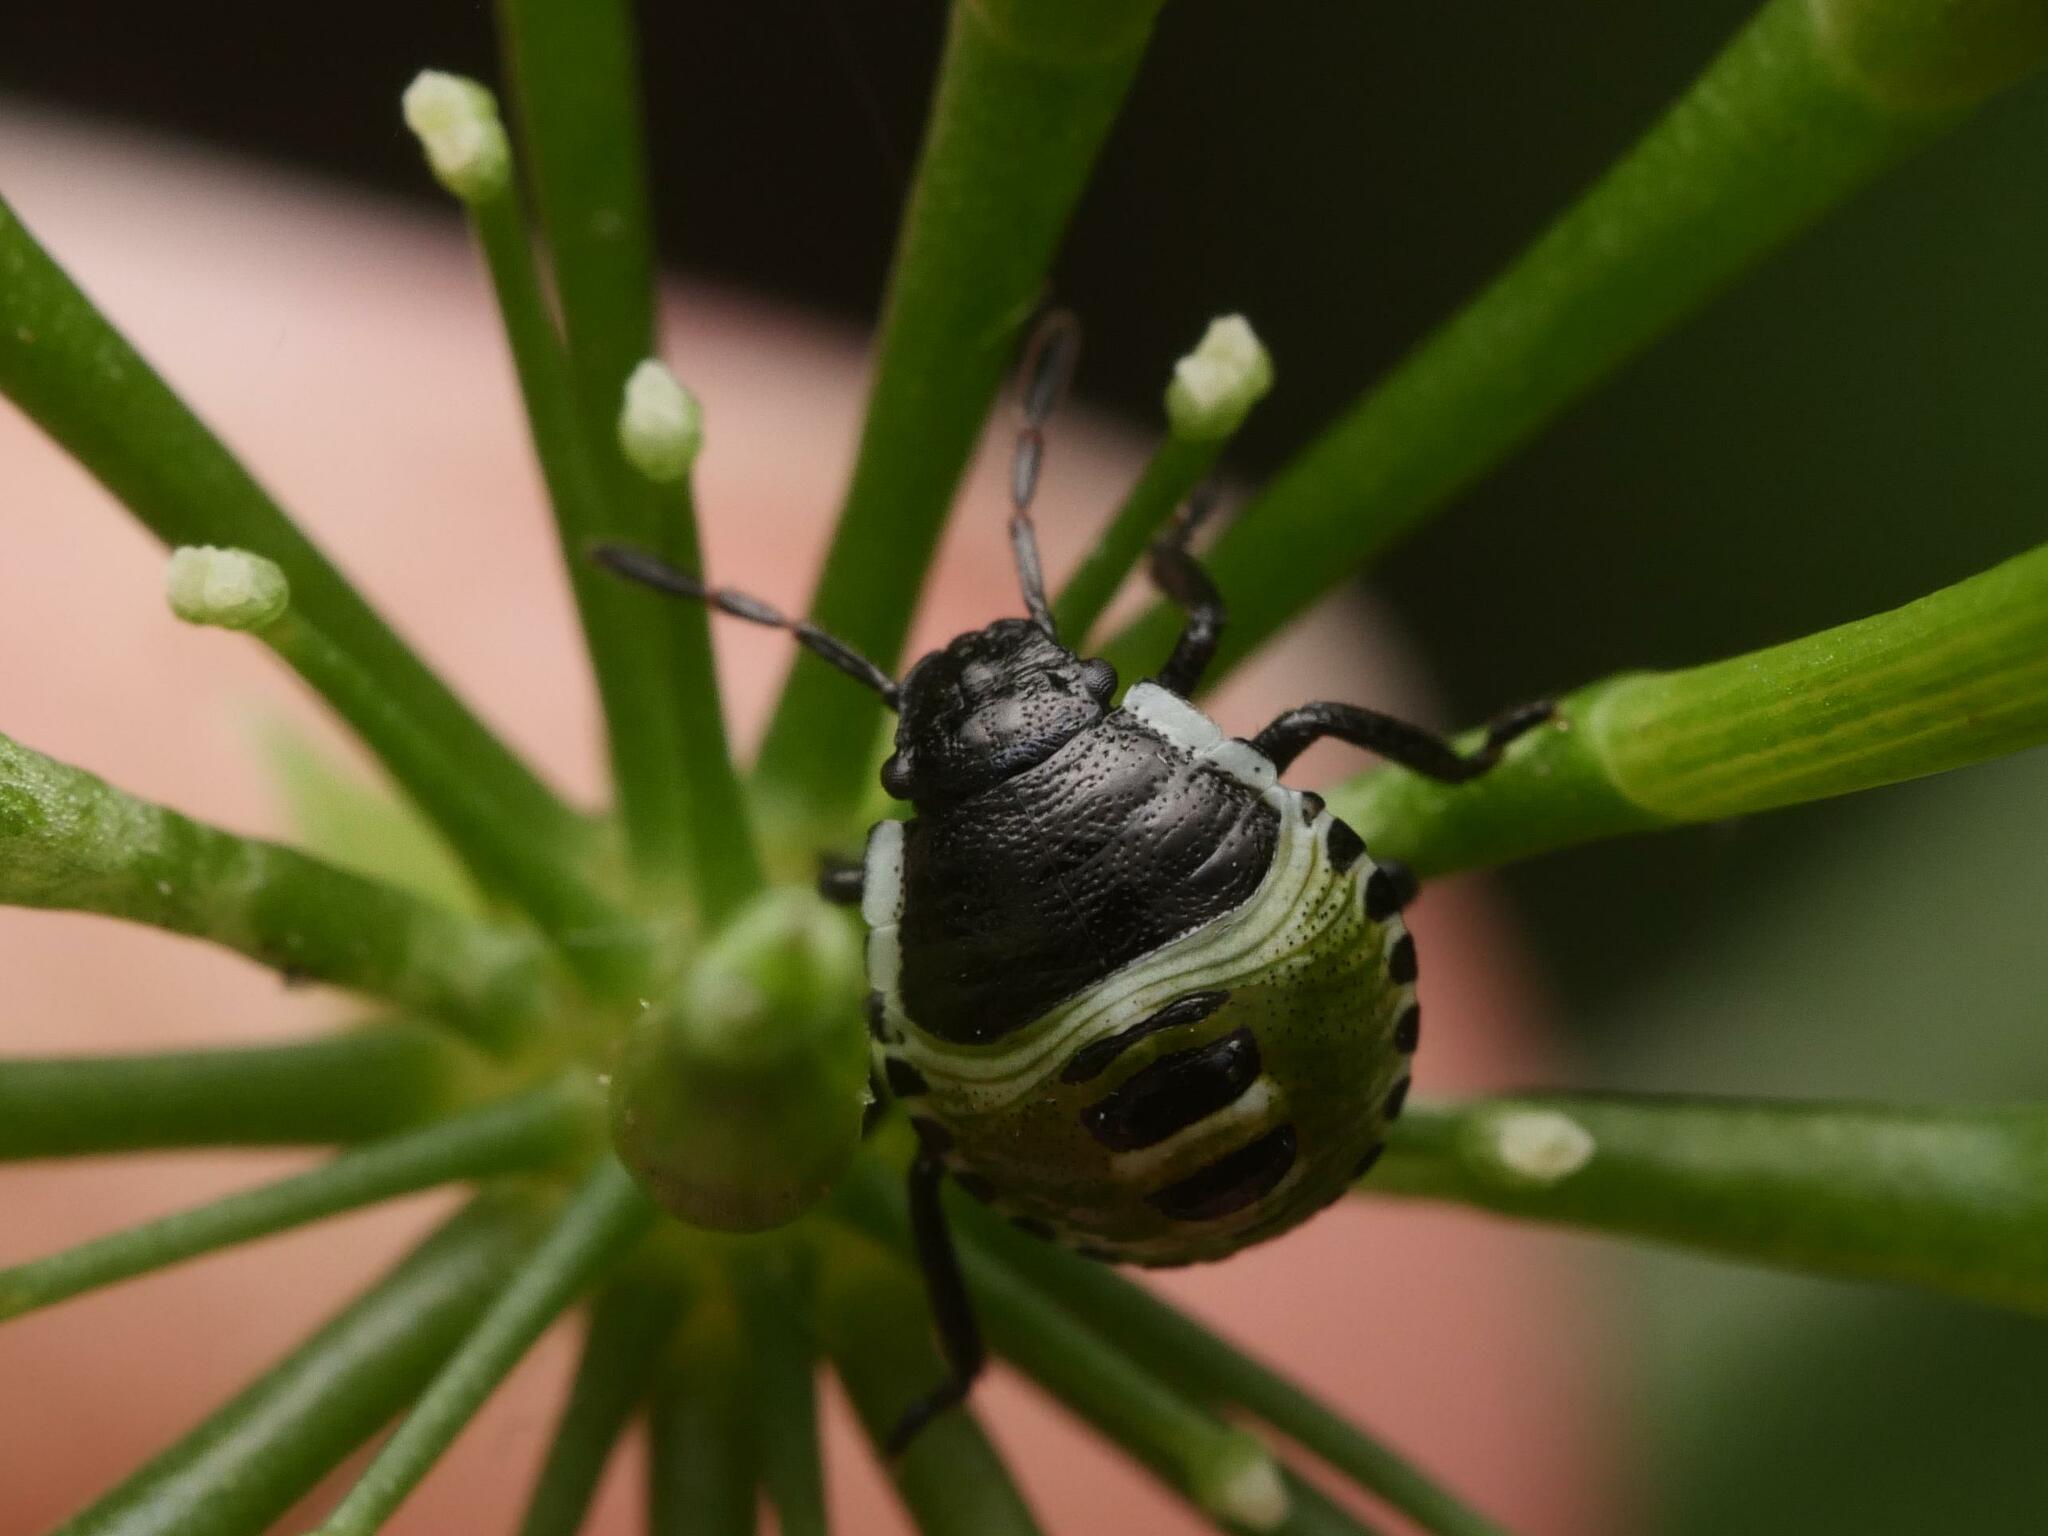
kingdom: Animalia
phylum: Arthropoda
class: Insecta
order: Hemiptera
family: Pentatomidae
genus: Palomena
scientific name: Palomena prasina
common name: Green shieldbug
